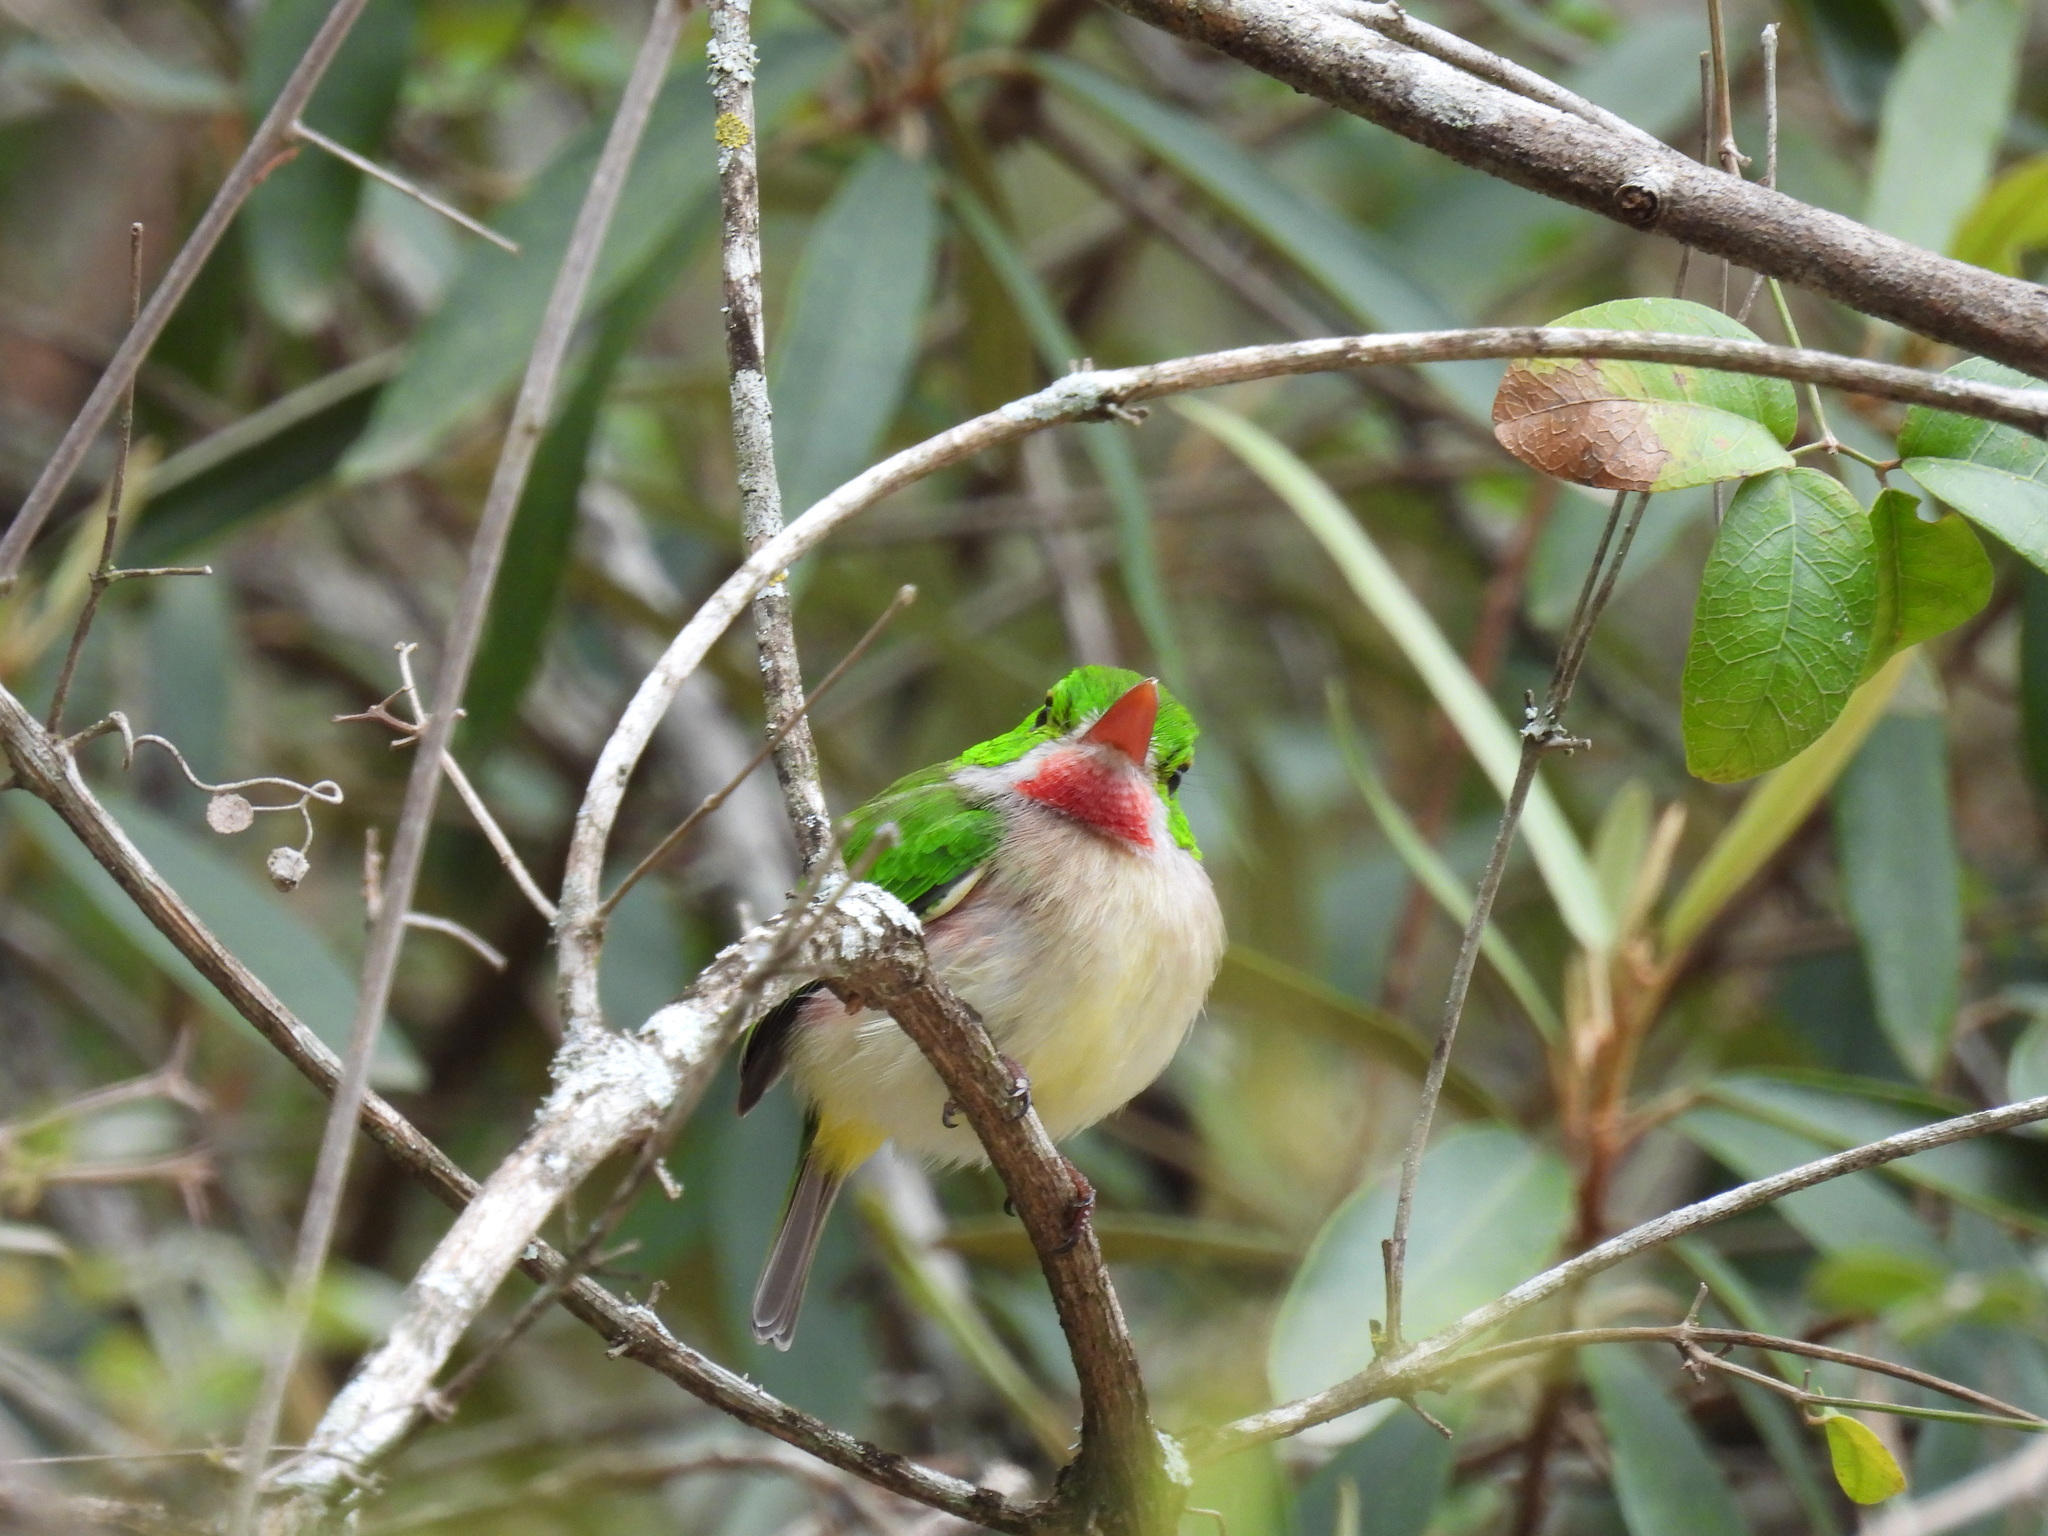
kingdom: Animalia
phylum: Chordata
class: Aves
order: Coraciiformes
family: Todidae
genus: Todus
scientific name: Todus subulatus
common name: Broad-billed tody
